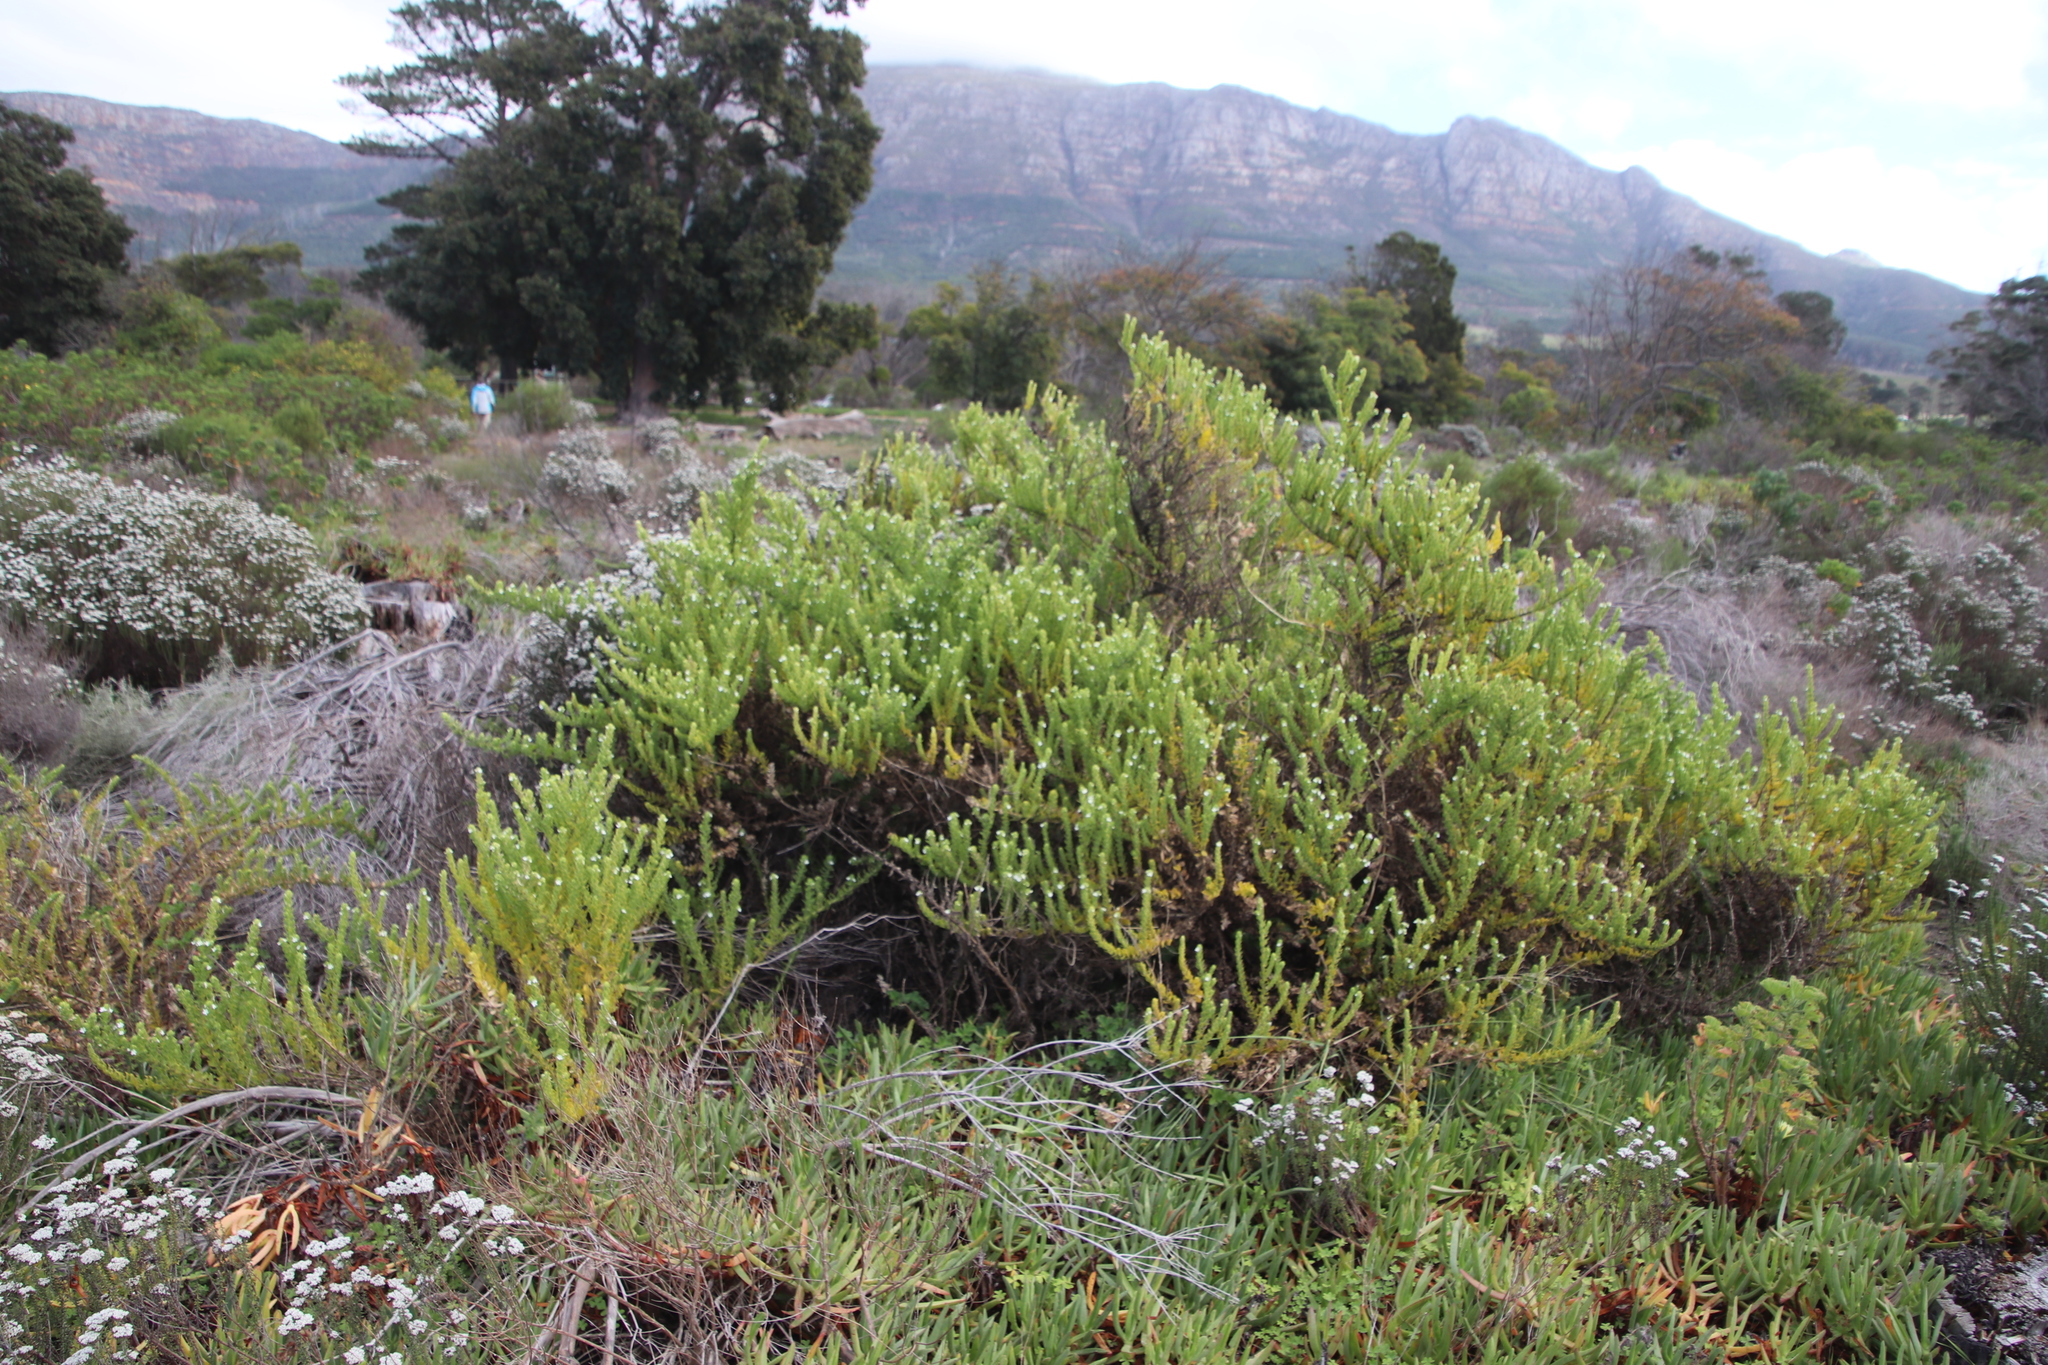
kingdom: Plantae
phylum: Tracheophyta
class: Magnoliopsida
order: Lamiales
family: Scrophulariaceae
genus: Oftia
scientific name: Oftia africana
